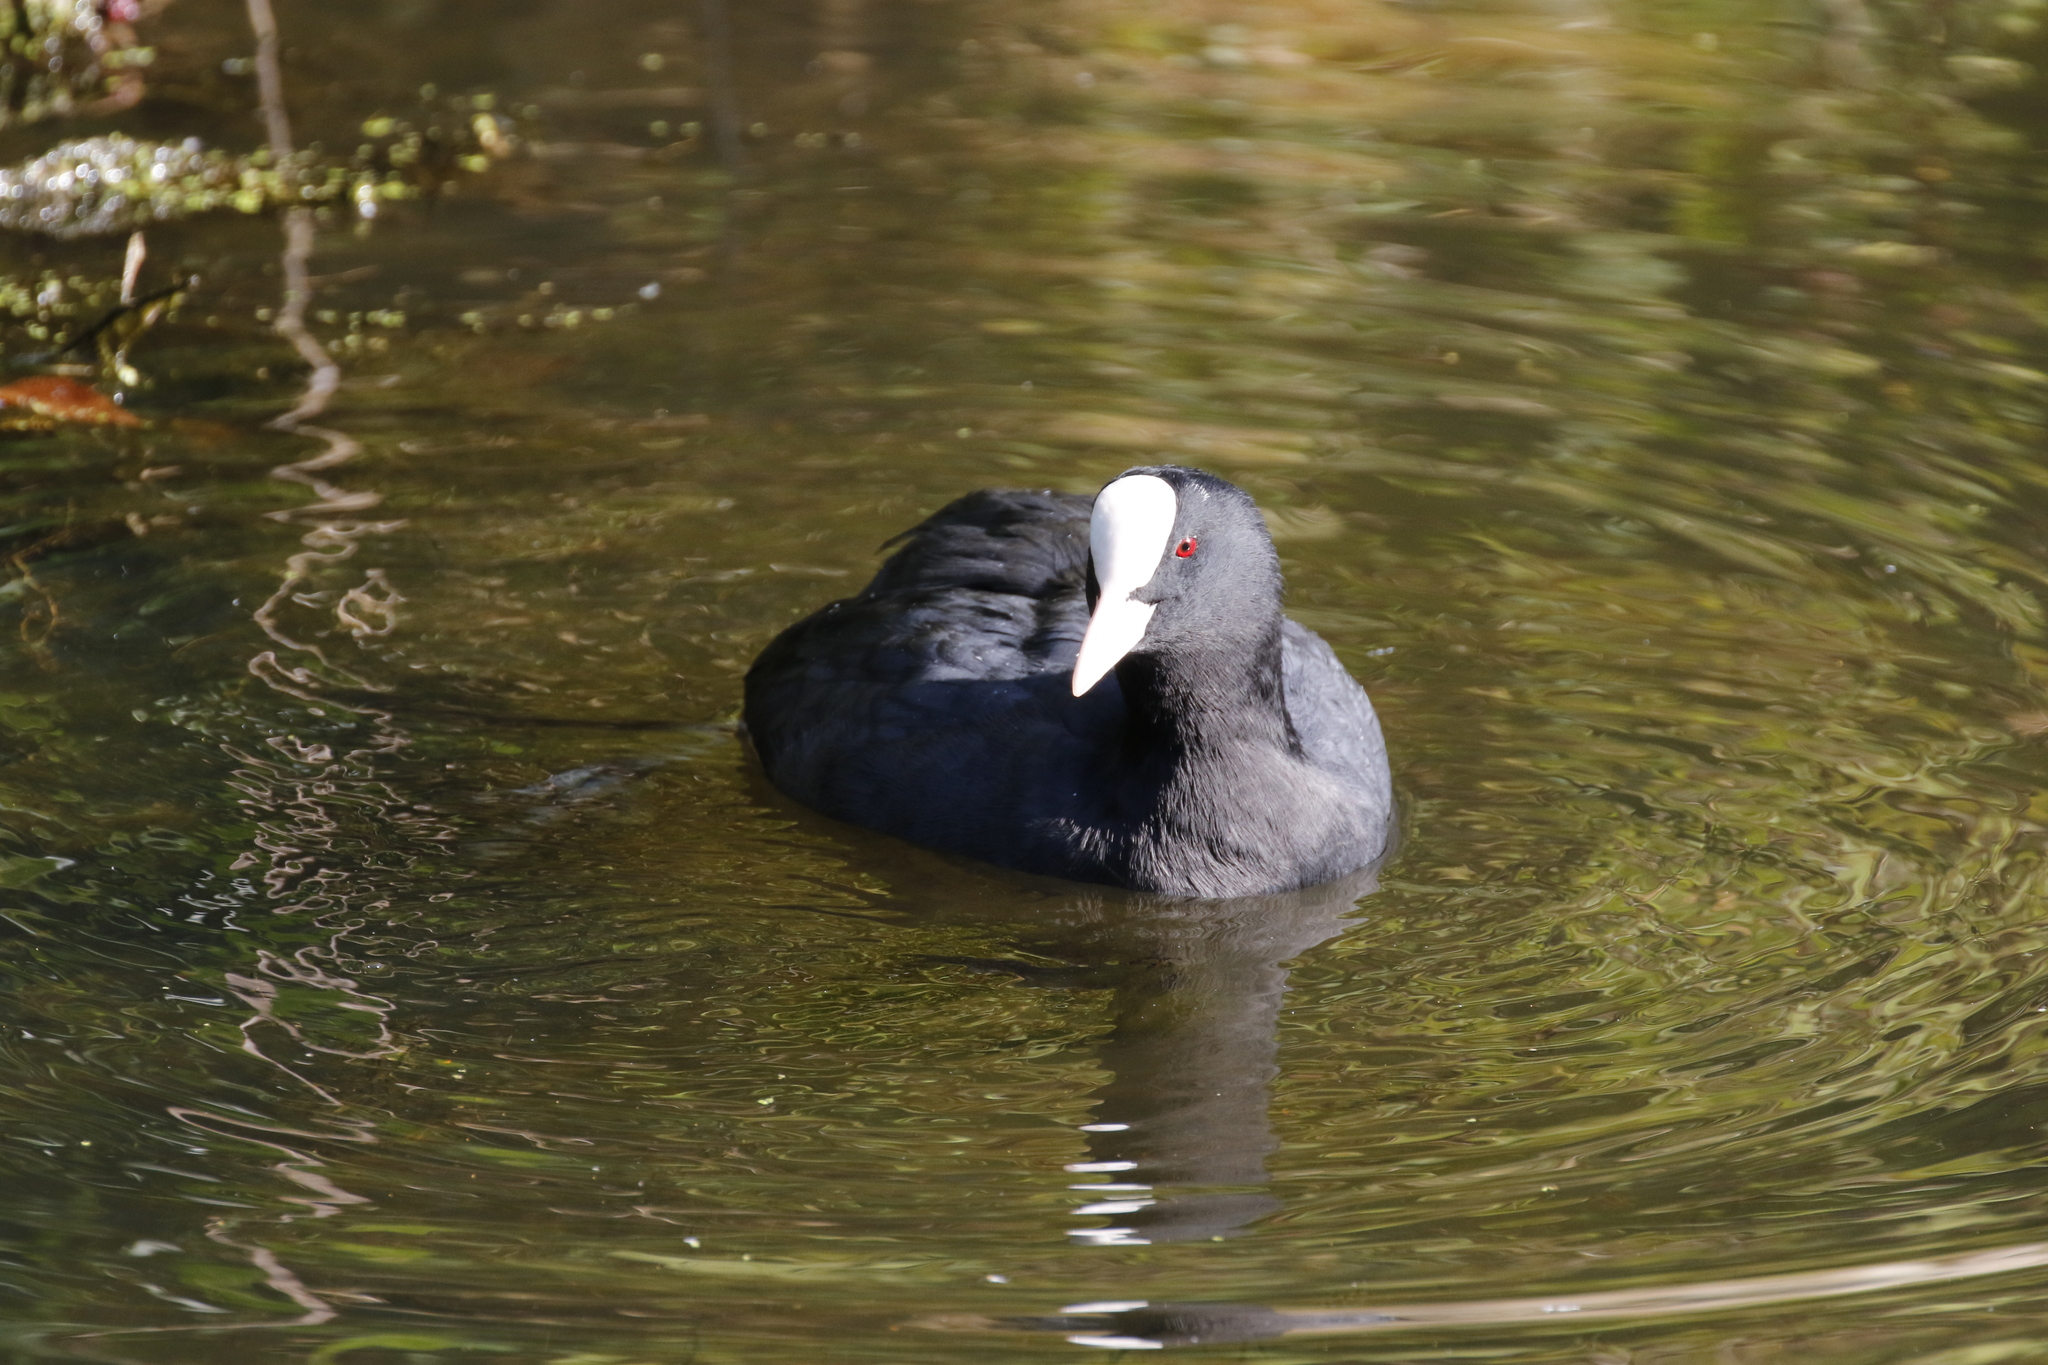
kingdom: Animalia
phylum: Chordata
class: Aves
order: Gruiformes
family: Rallidae
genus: Fulica
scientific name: Fulica atra
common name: Eurasian coot
